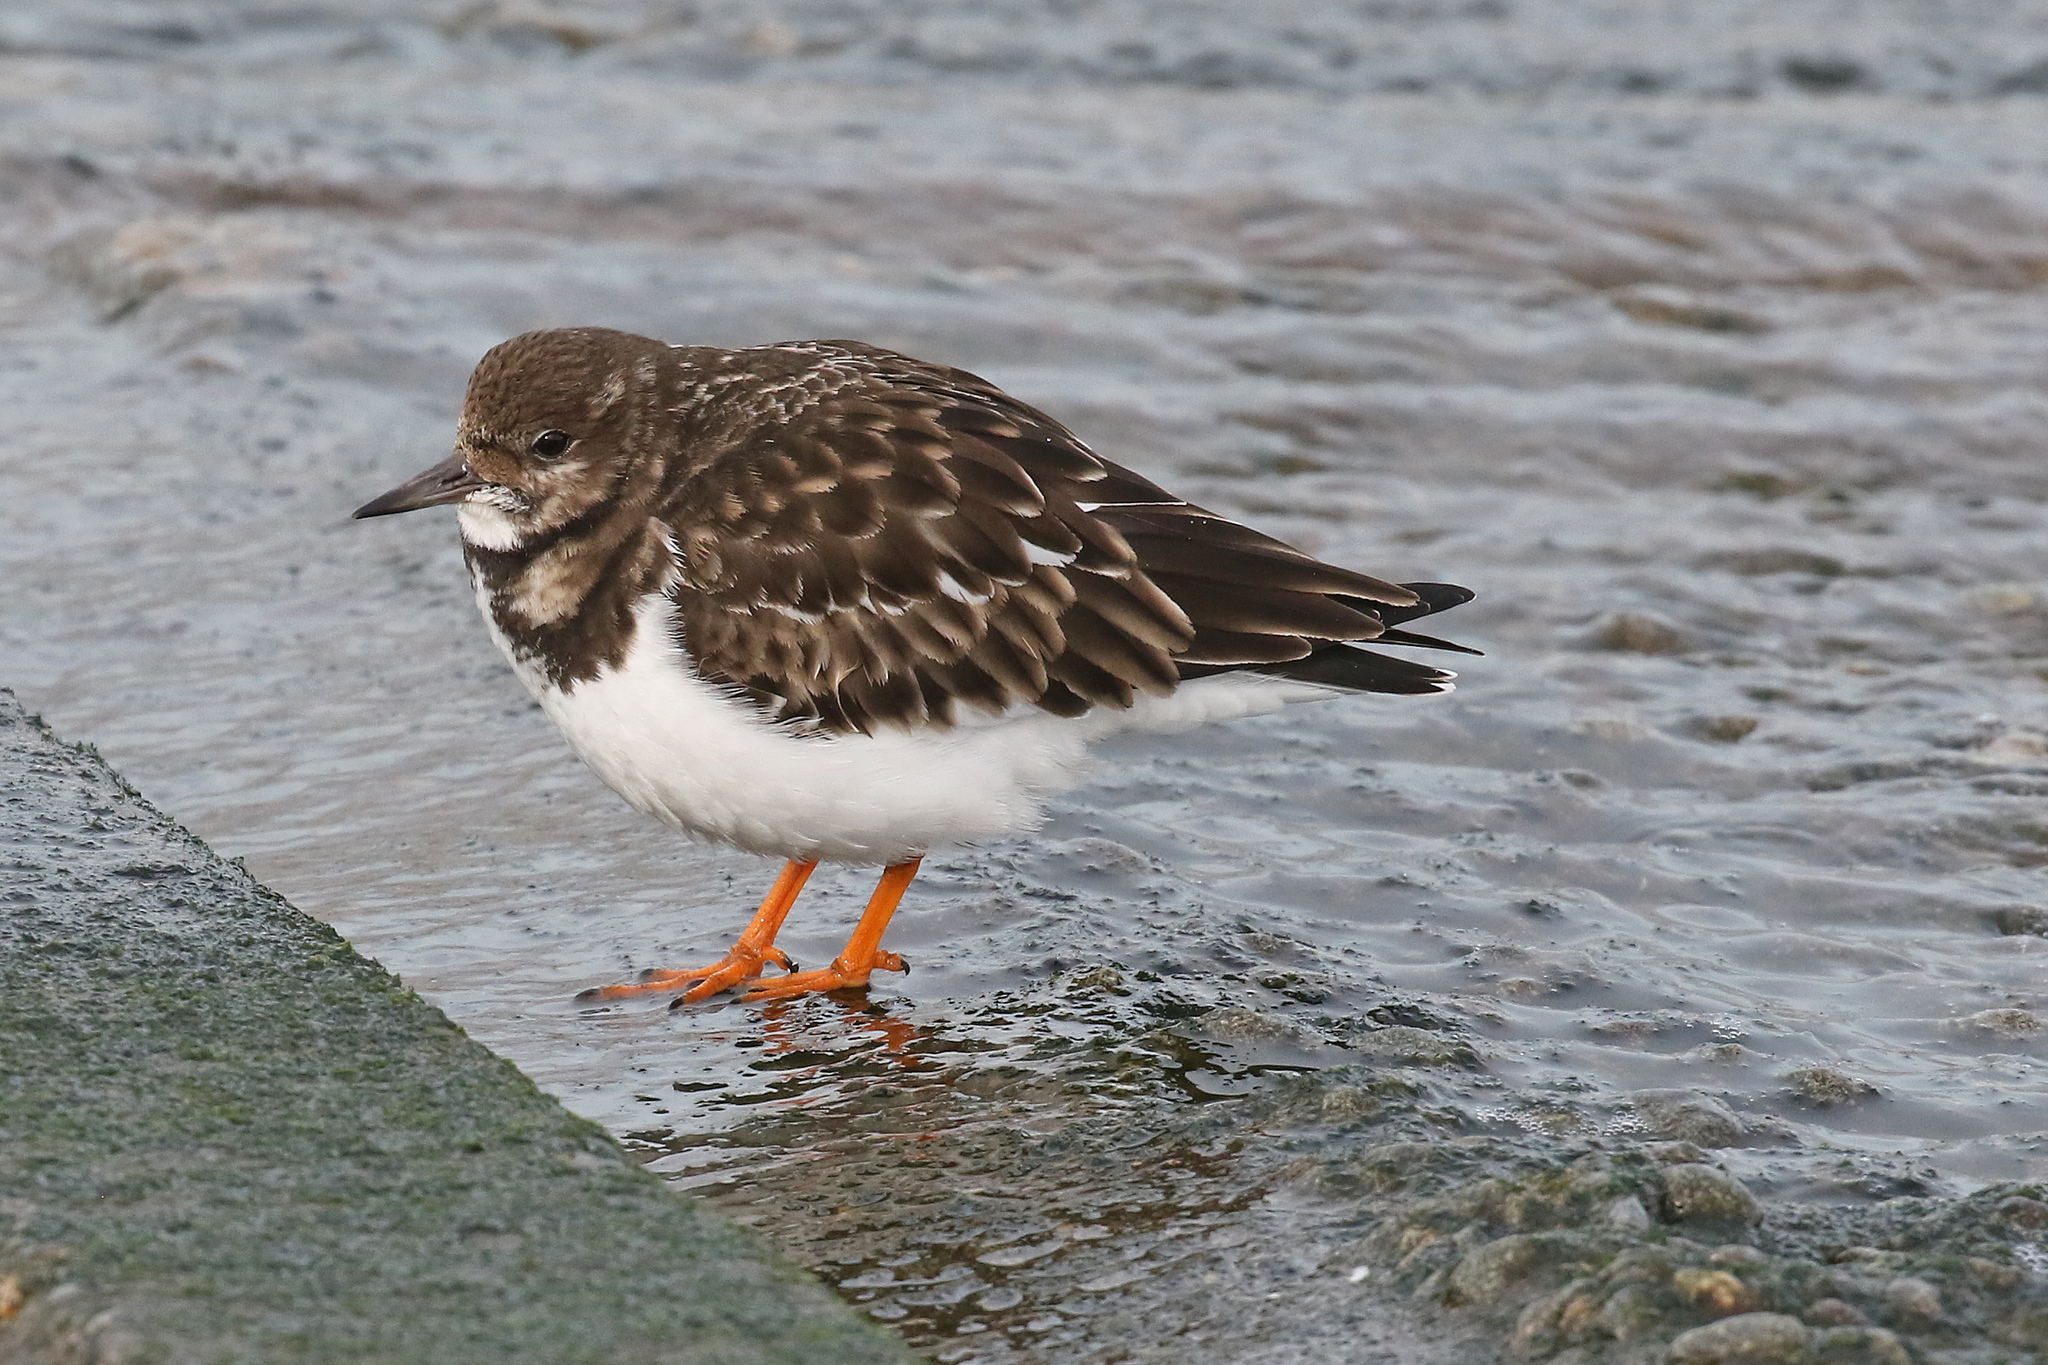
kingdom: Animalia
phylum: Chordata
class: Aves
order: Charadriiformes
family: Scolopacidae
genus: Arenaria
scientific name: Arenaria interpres
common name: Ruddy turnstone
